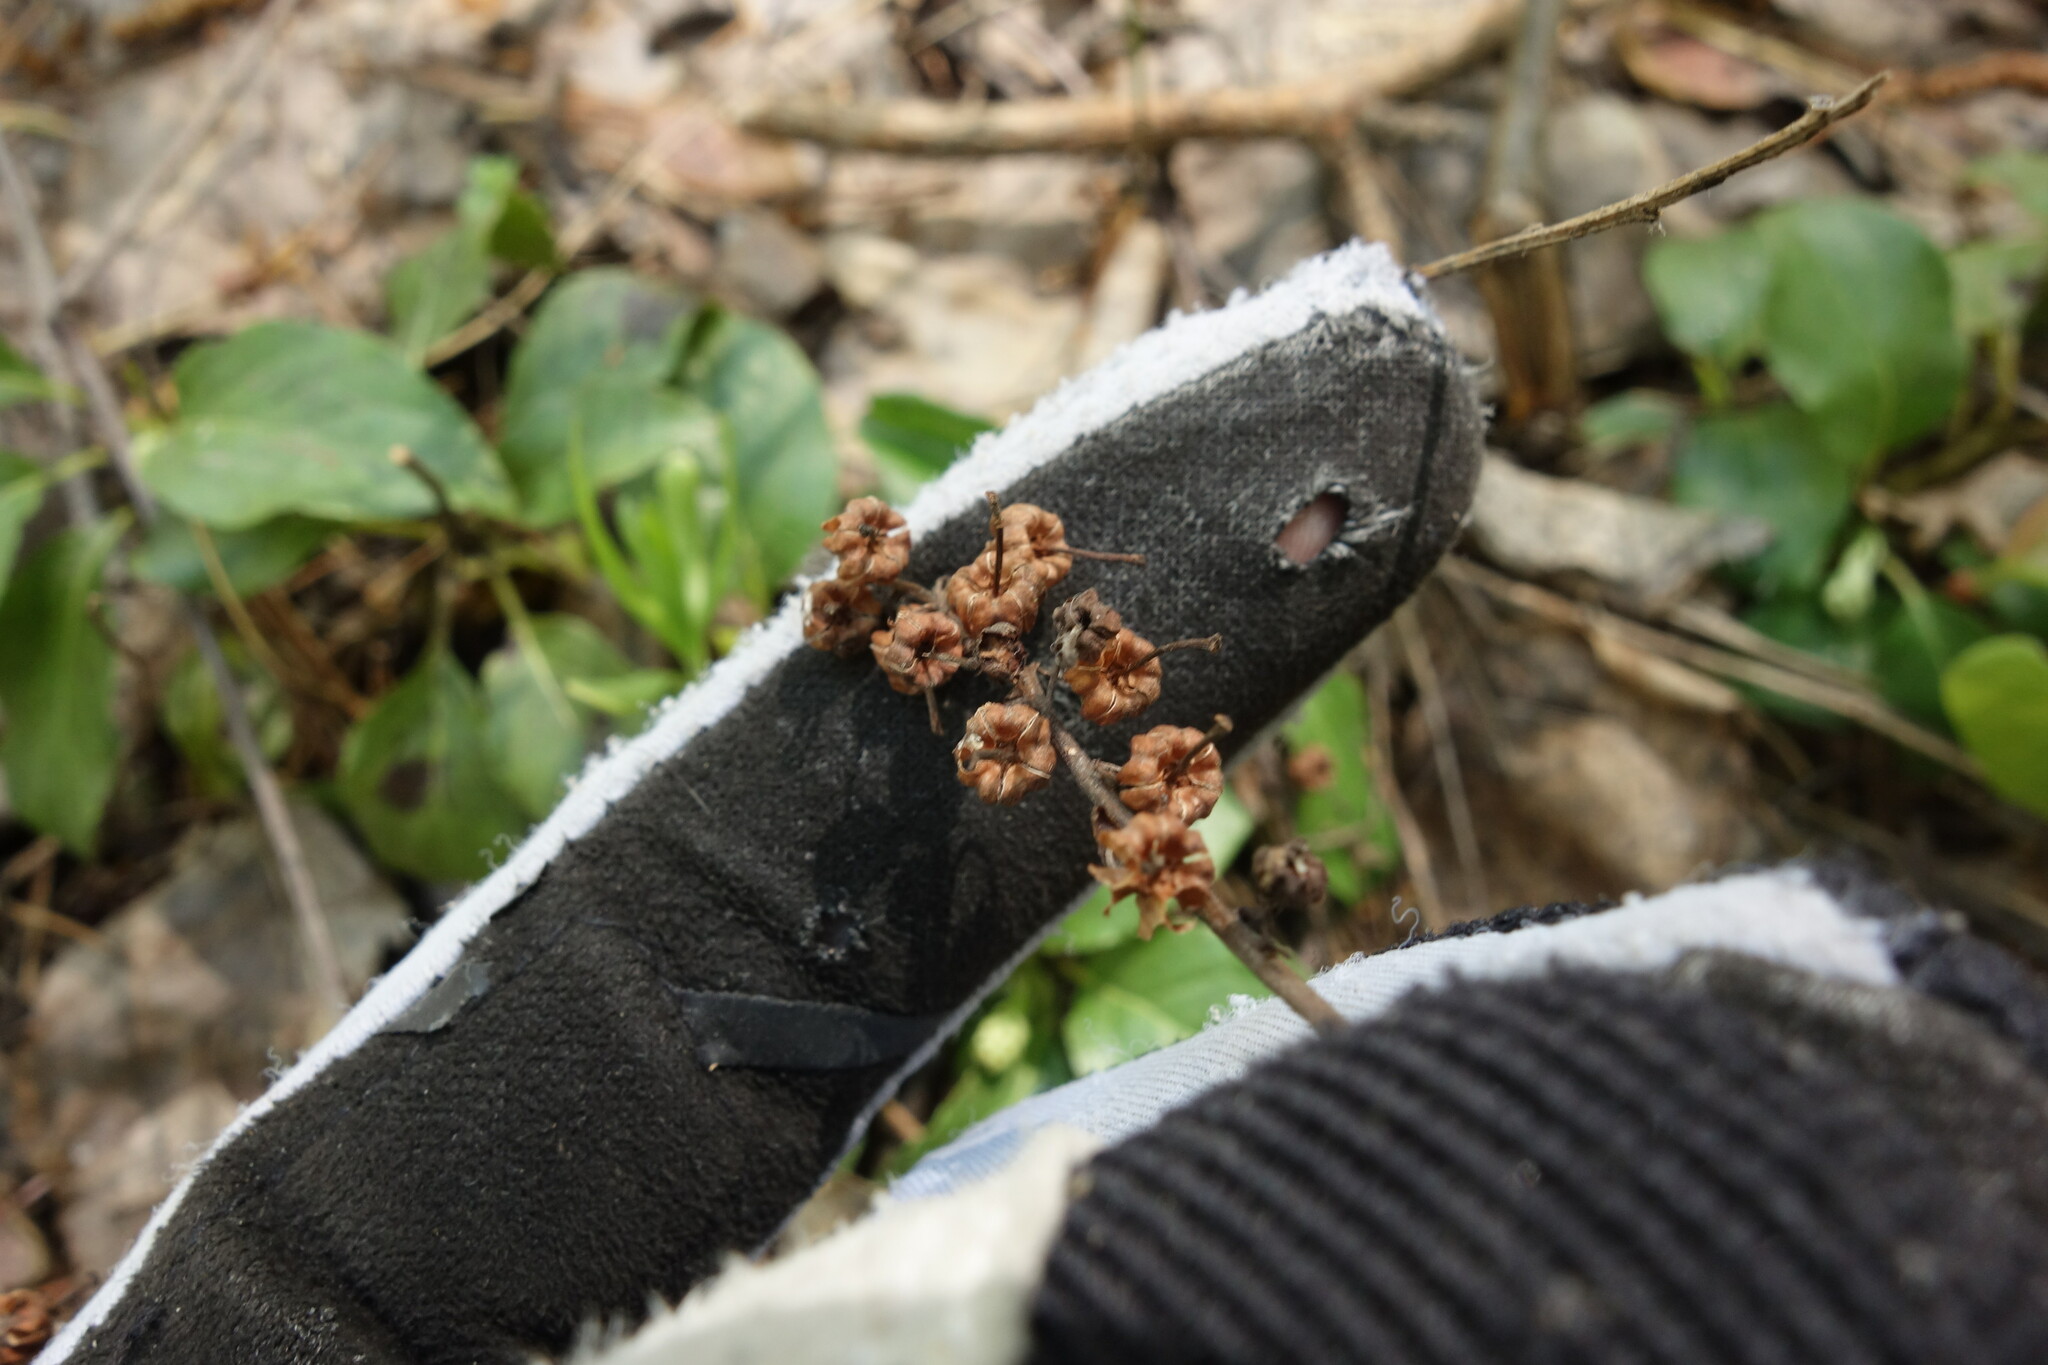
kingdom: Plantae
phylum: Tracheophyta
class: Magnoliopsida
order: Ericales
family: Ericaceae
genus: Orthilia
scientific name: Orthilia secunda
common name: One-sided orthilia
